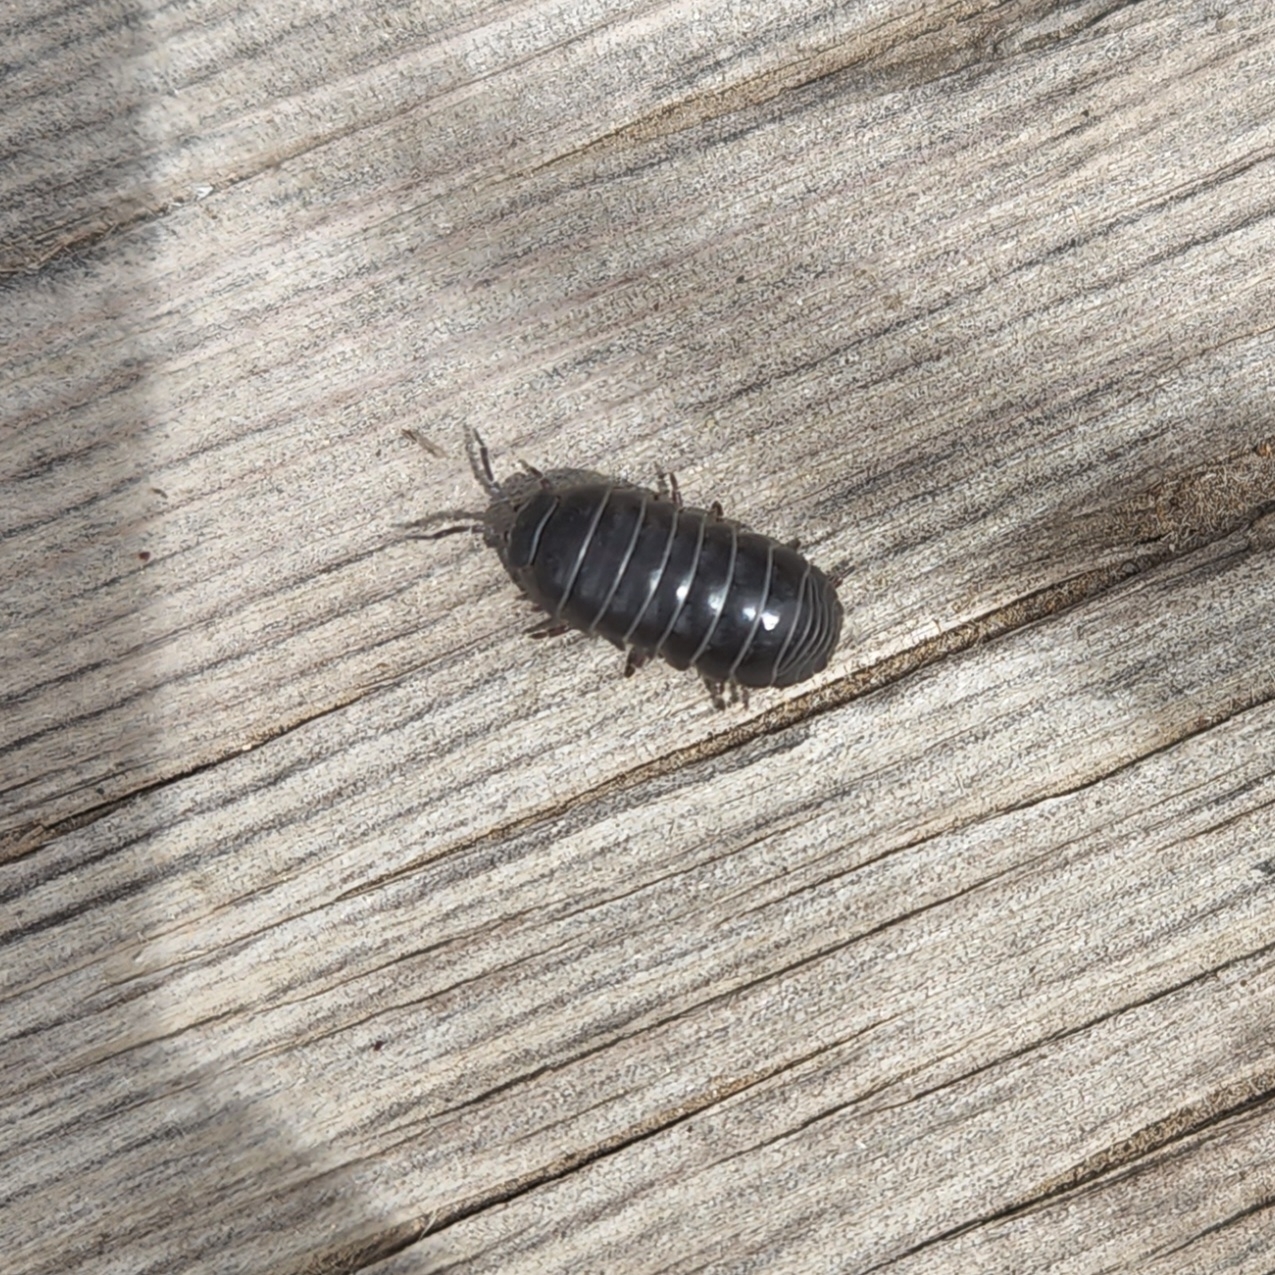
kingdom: Animalia
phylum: Arthropoda
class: Malacostraca
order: Isopoda
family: Armadillidiidae
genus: Armadillidium
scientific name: Armadillidium vulgare
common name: Common pill woodlouse
